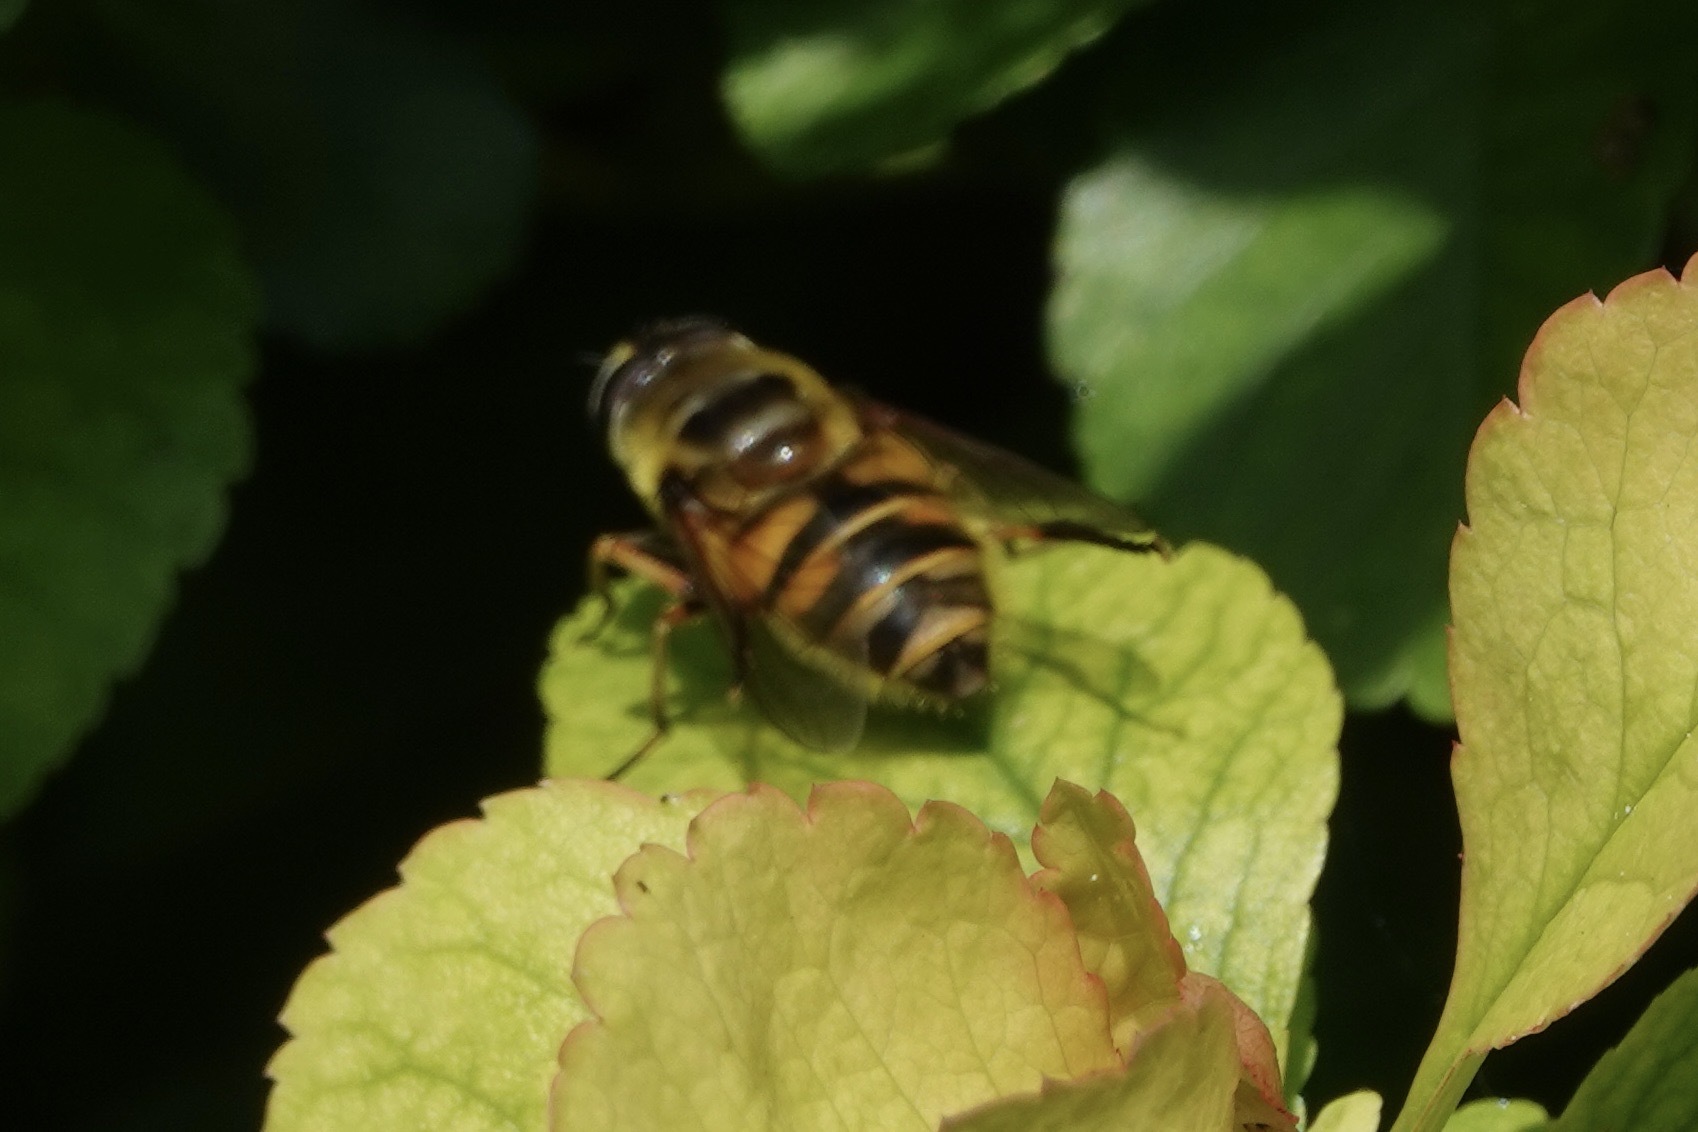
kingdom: Animalia
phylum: Arthropoda
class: Insecta
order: Diptera
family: Syrphidae
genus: Myathropa
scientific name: Myathropa florea
